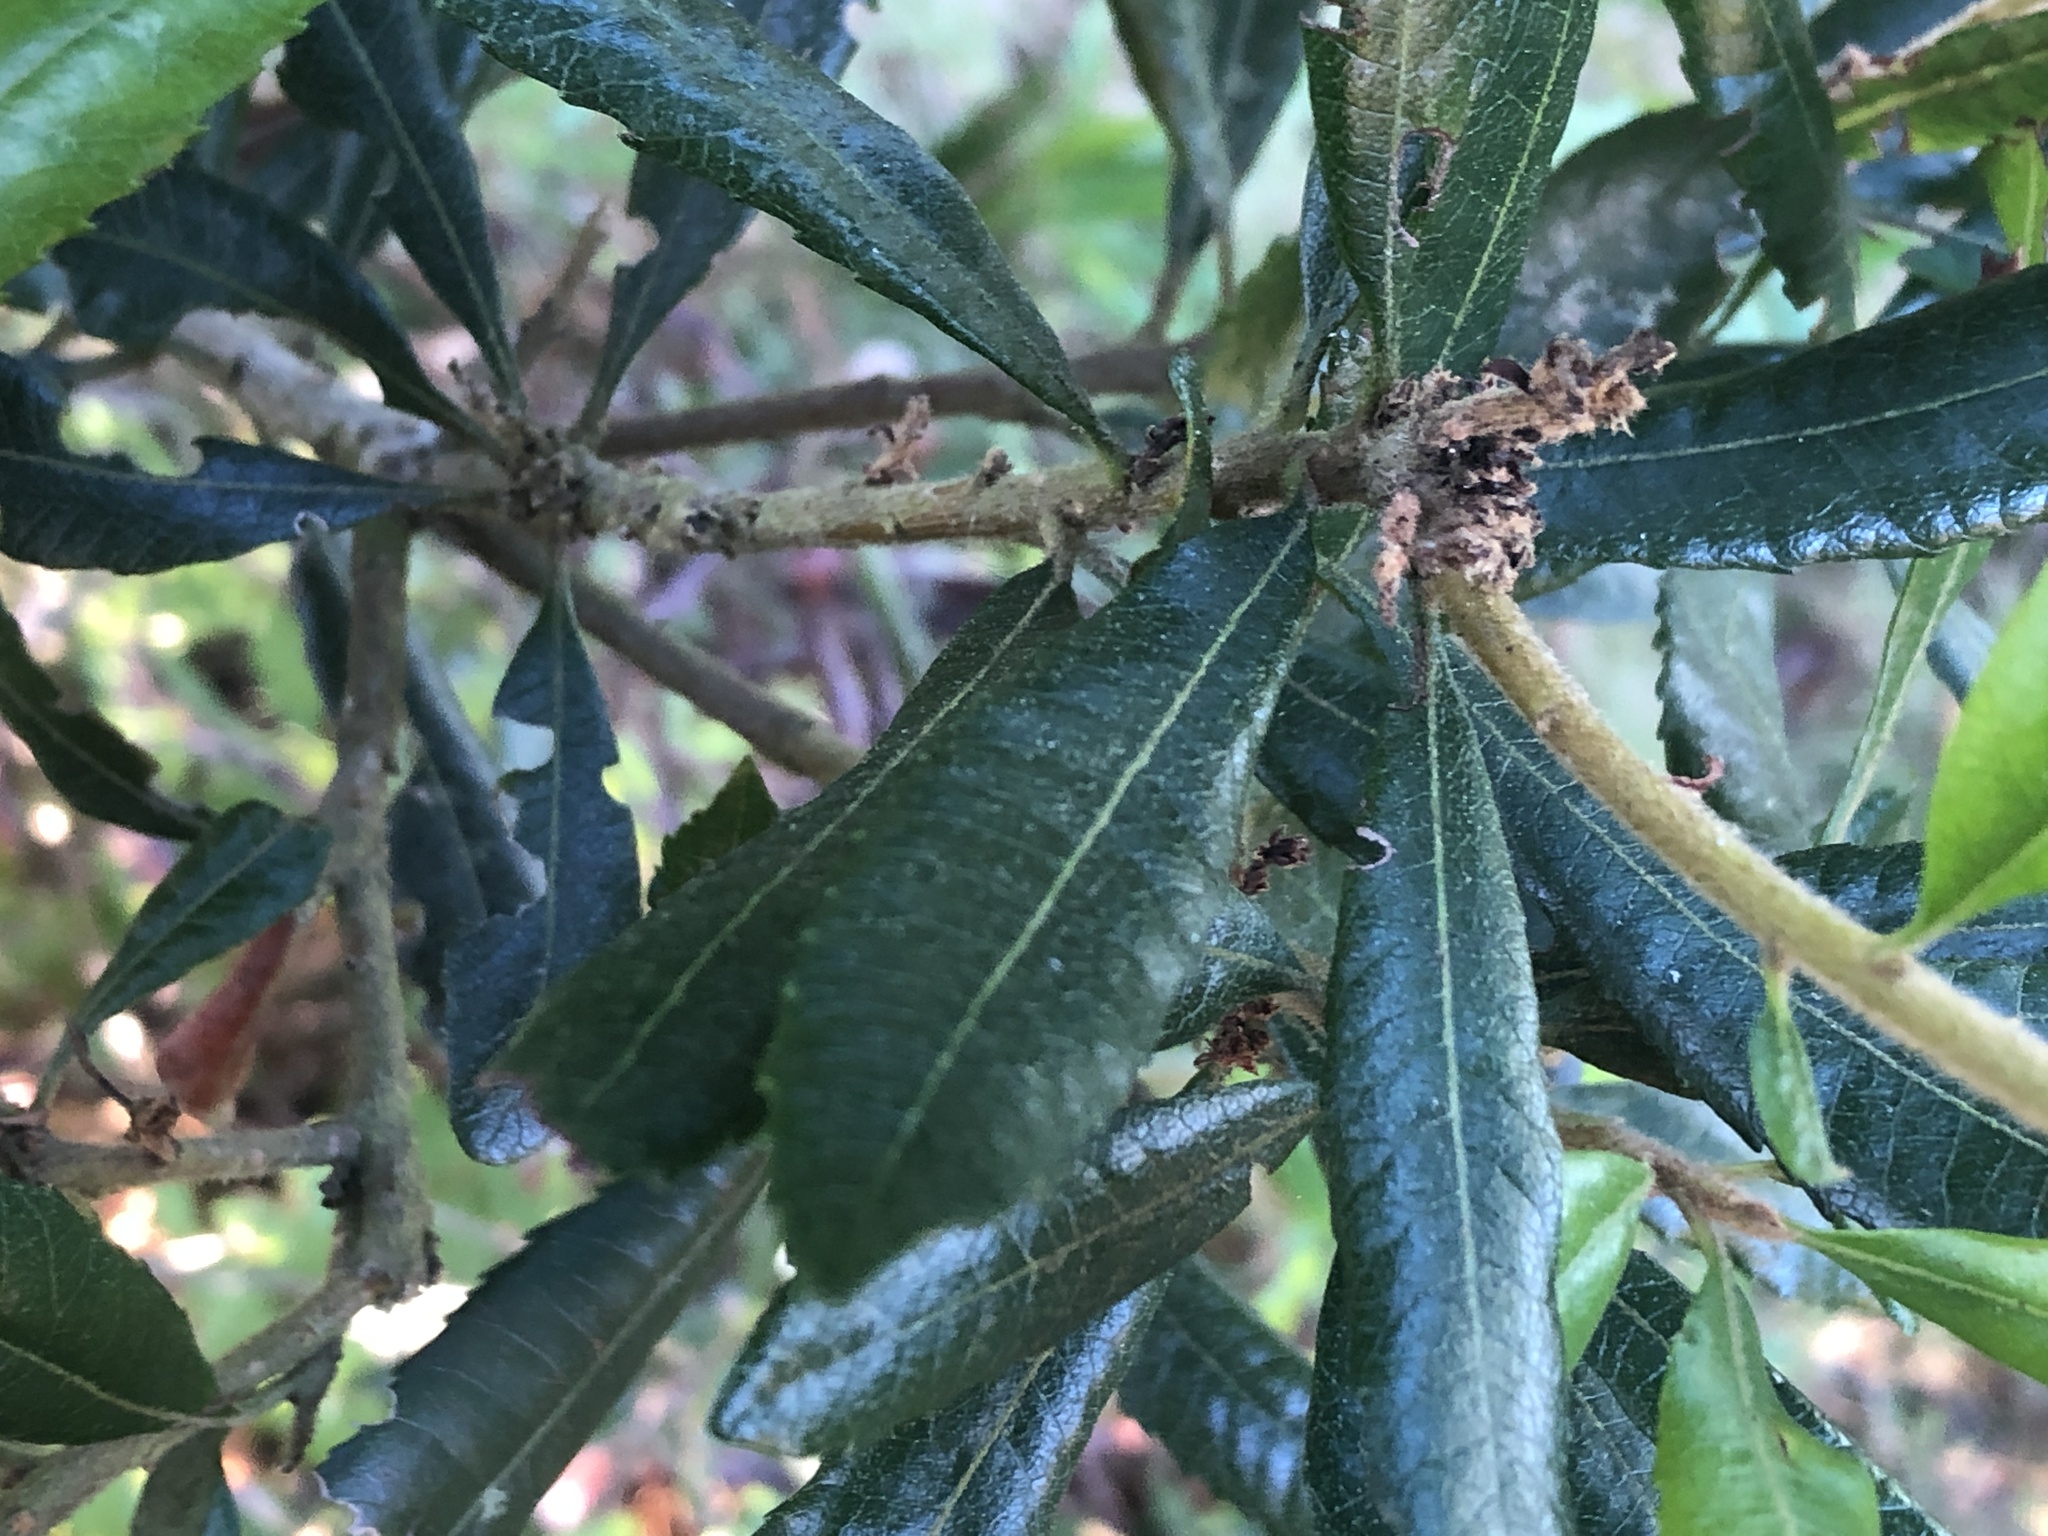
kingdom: Plantae
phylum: Tracheophyta
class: Magnoliopsida
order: Fagales
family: Myricaceae
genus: Morella
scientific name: Morella californica
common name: California wax-myrtle
